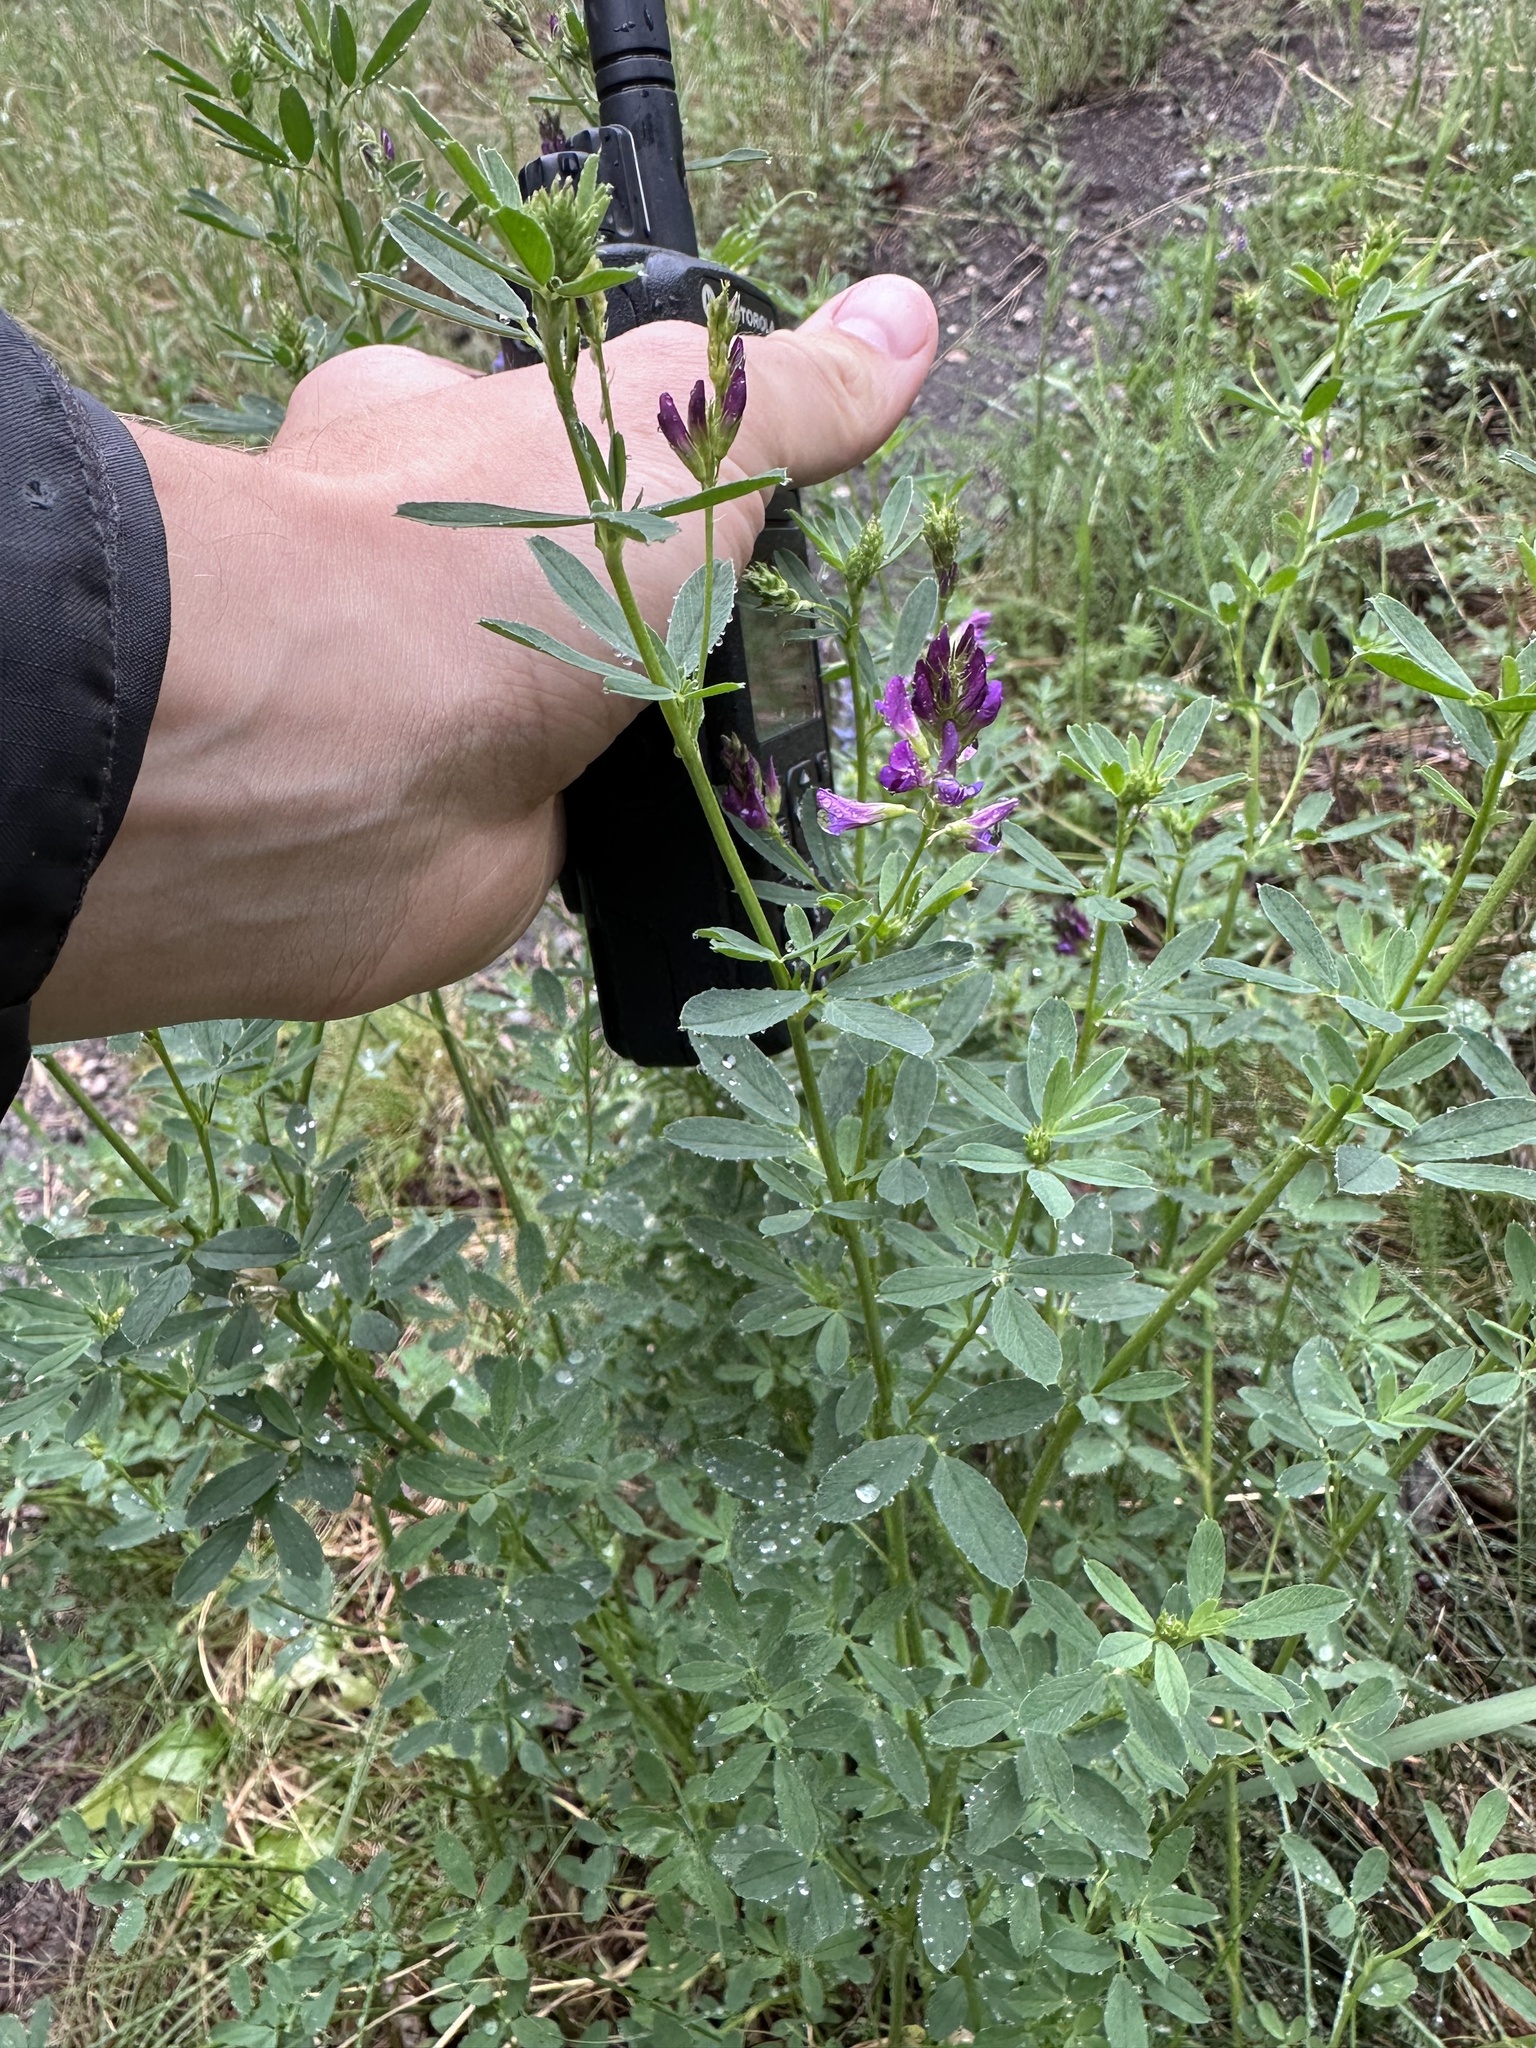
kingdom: Plantae
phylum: Tracheophyta
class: Magnoliopsida
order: Fabales
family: Fabaceae
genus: Medicago
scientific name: Medicago sativa
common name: Alfalfa
